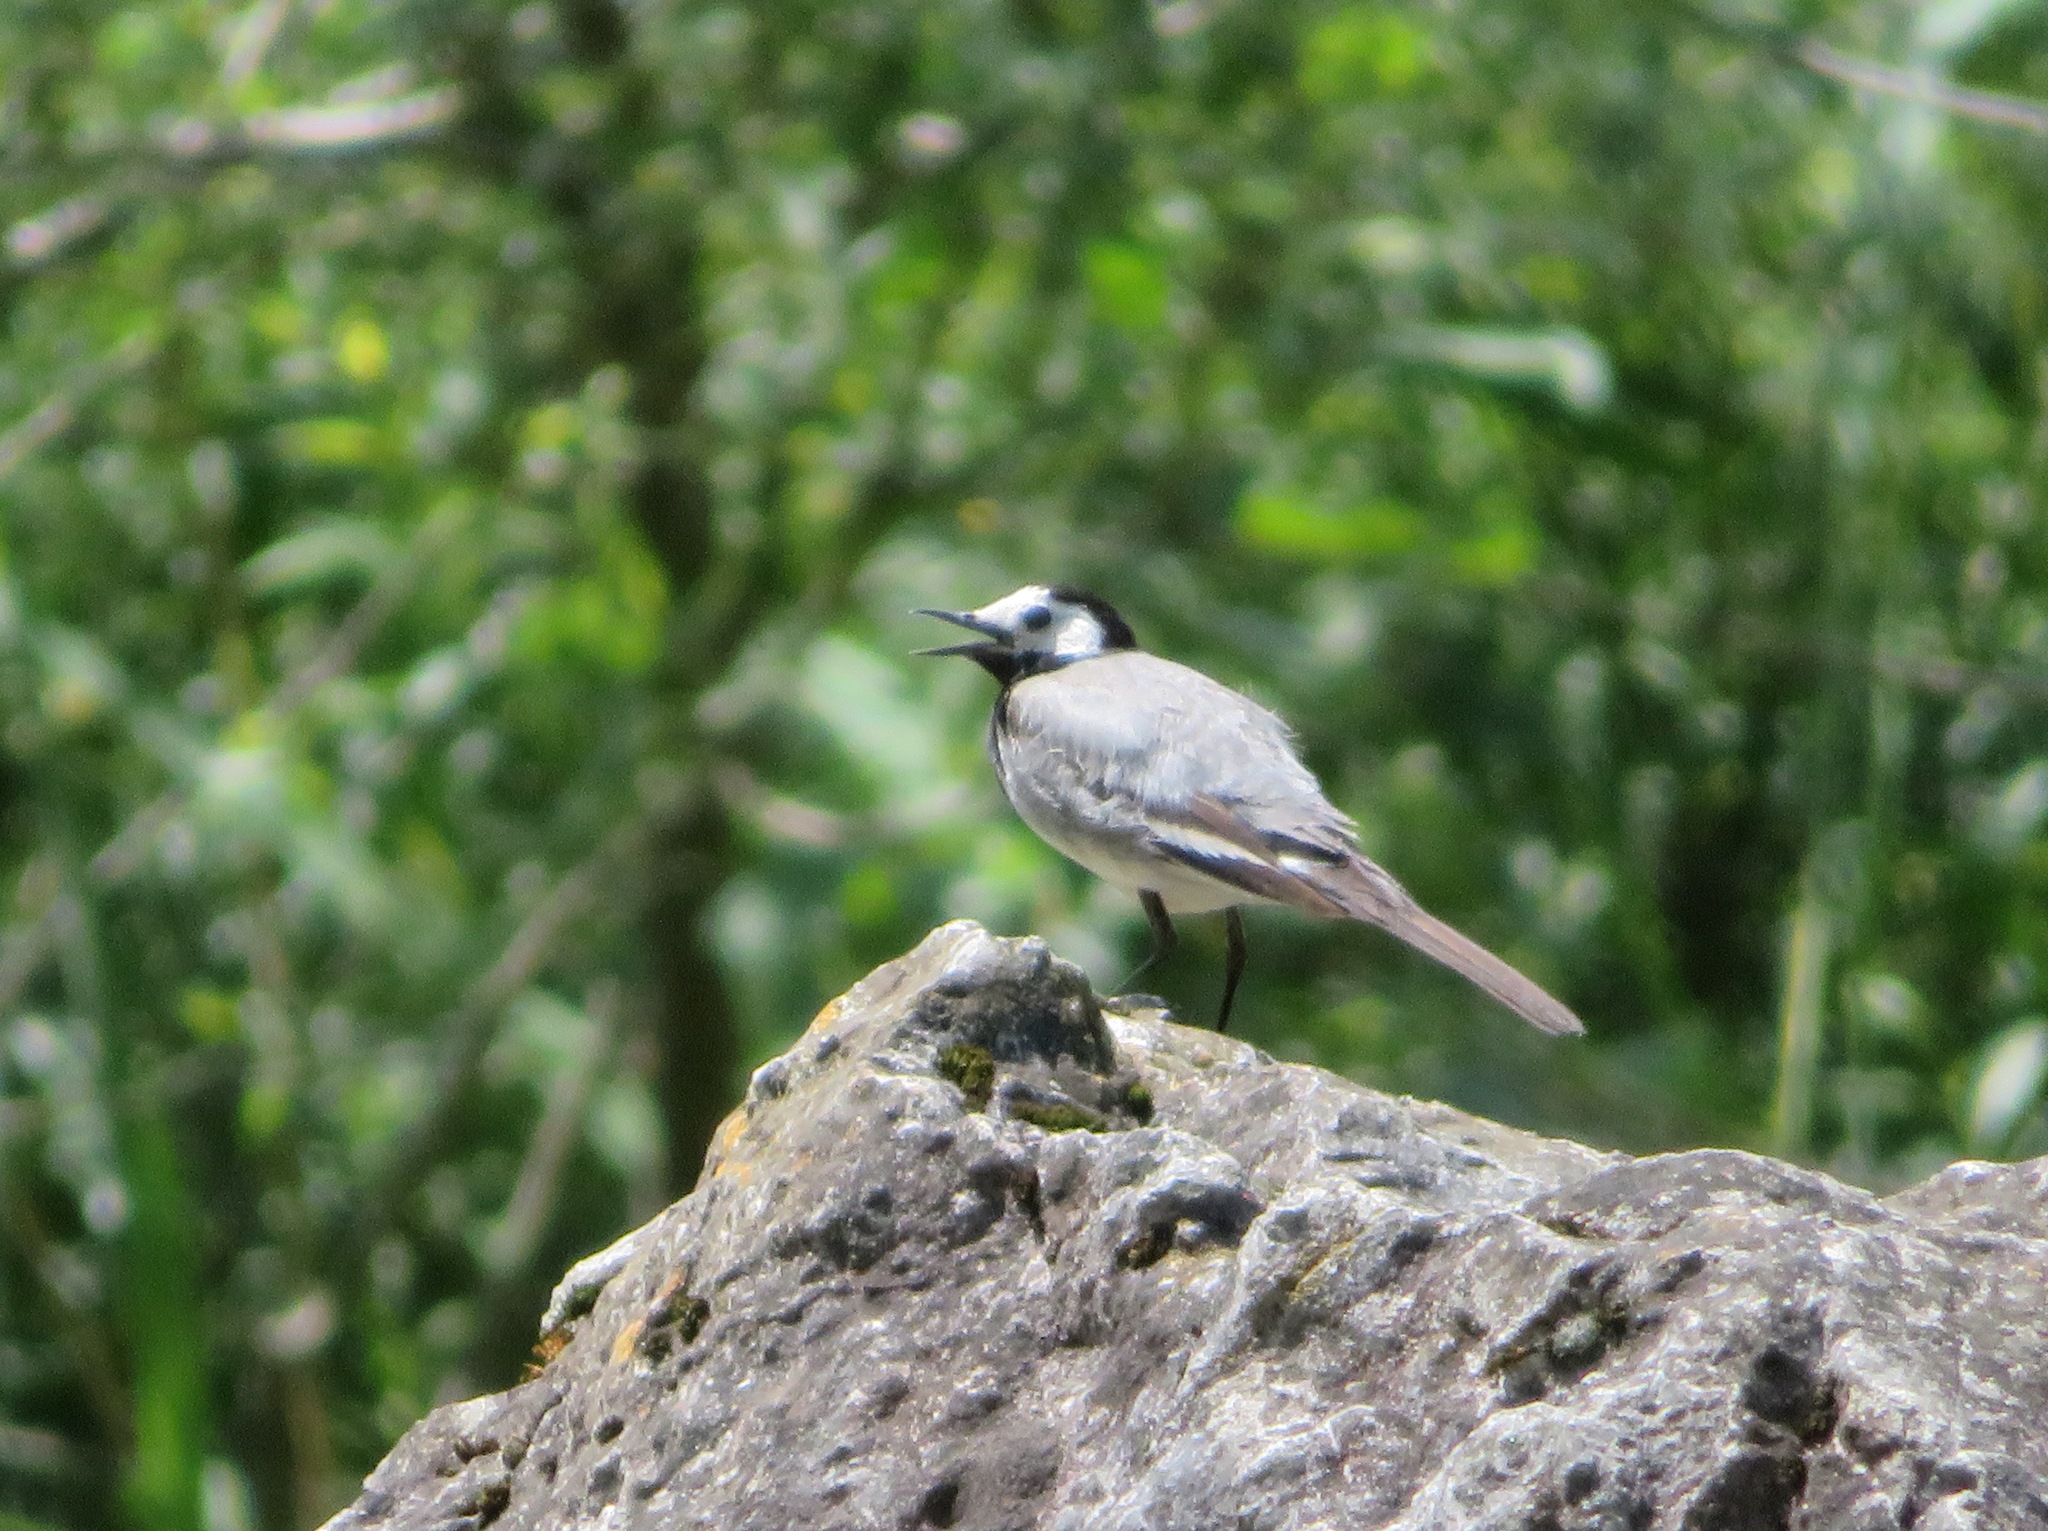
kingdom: Animalia
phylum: Chordata
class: Aves
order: Passeriformes
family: Motacillidae
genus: Motacilla
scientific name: Motacilla alba
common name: White wagtail
